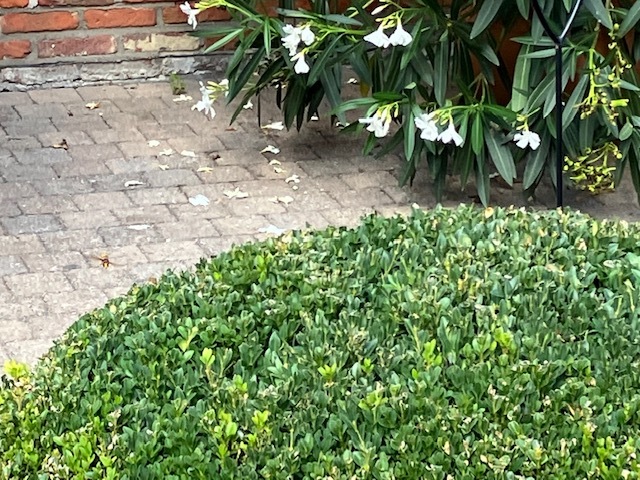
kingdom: Animalia
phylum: Arthropoda
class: Insecta
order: Hymenoptera
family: Vespidae
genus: Vespa
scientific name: Vespa crabro
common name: Hornet
